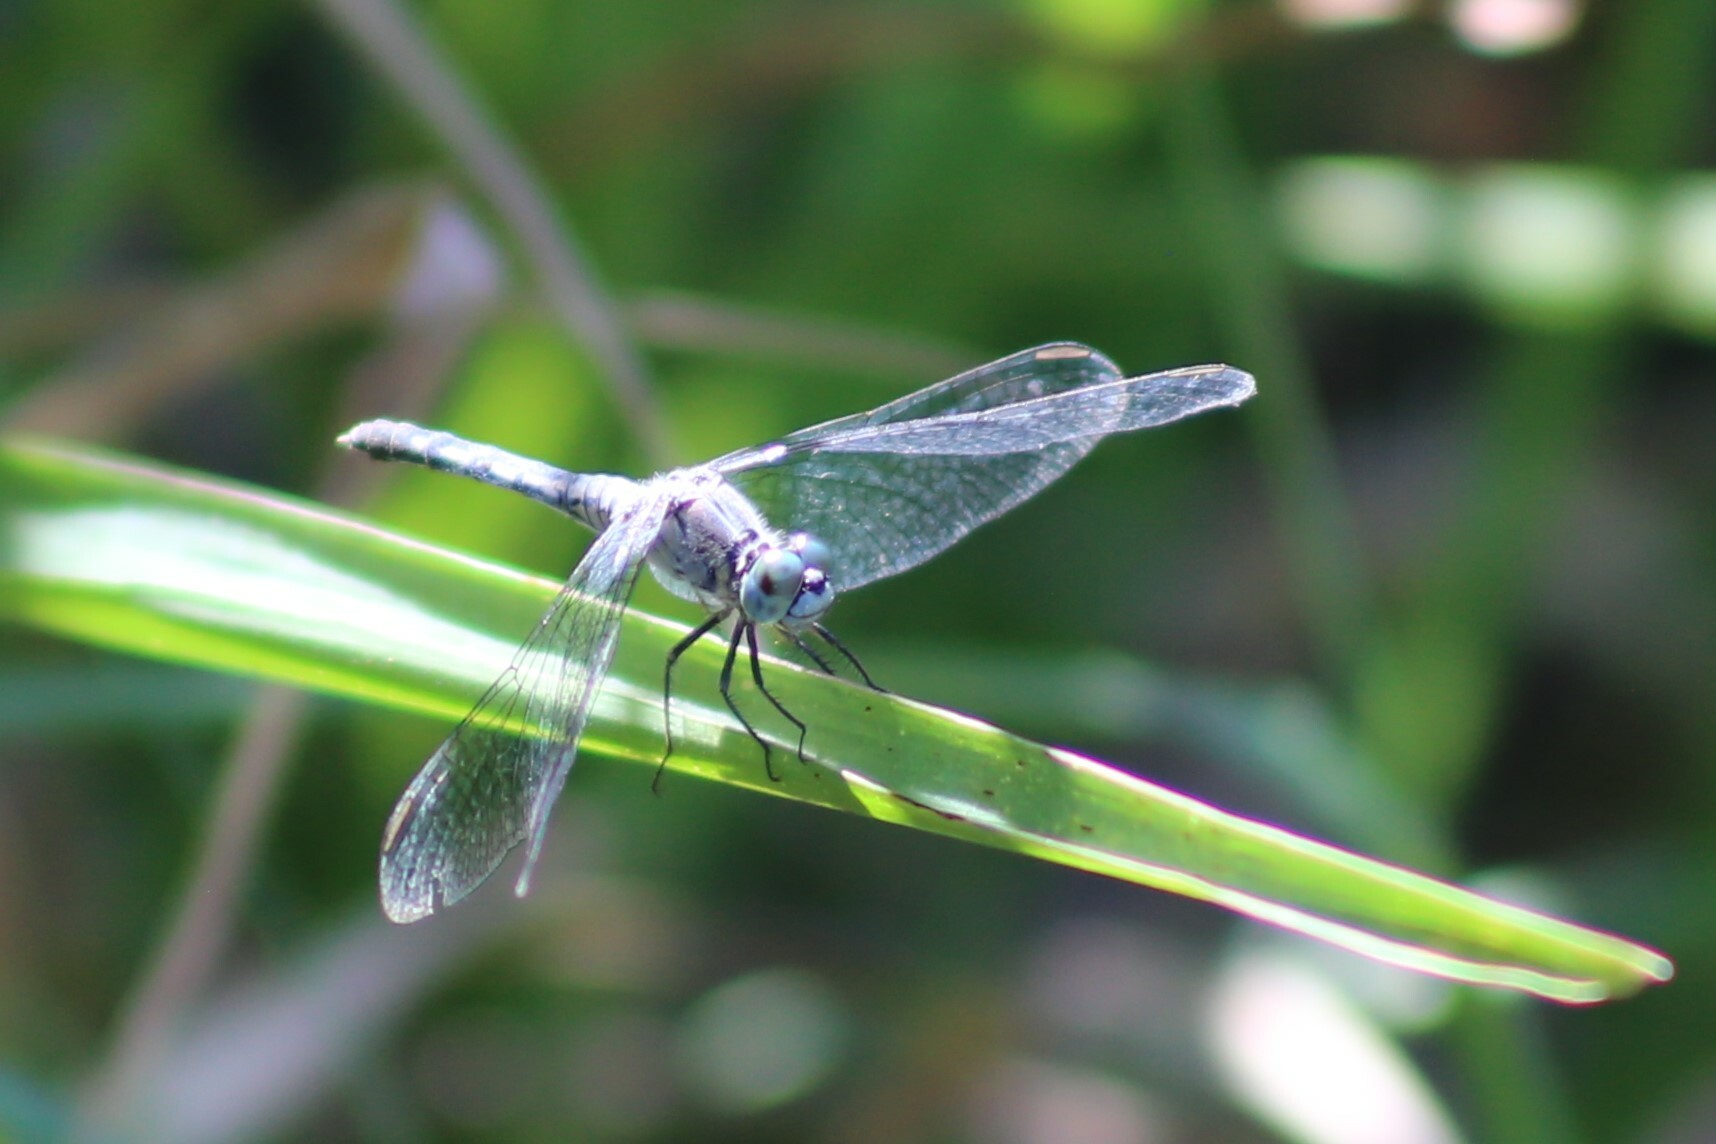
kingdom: Animalia
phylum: Arthropoda
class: Insecta
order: Odonata
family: Libellulidae
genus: Diplacodes
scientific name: Diplacodes trivialis
